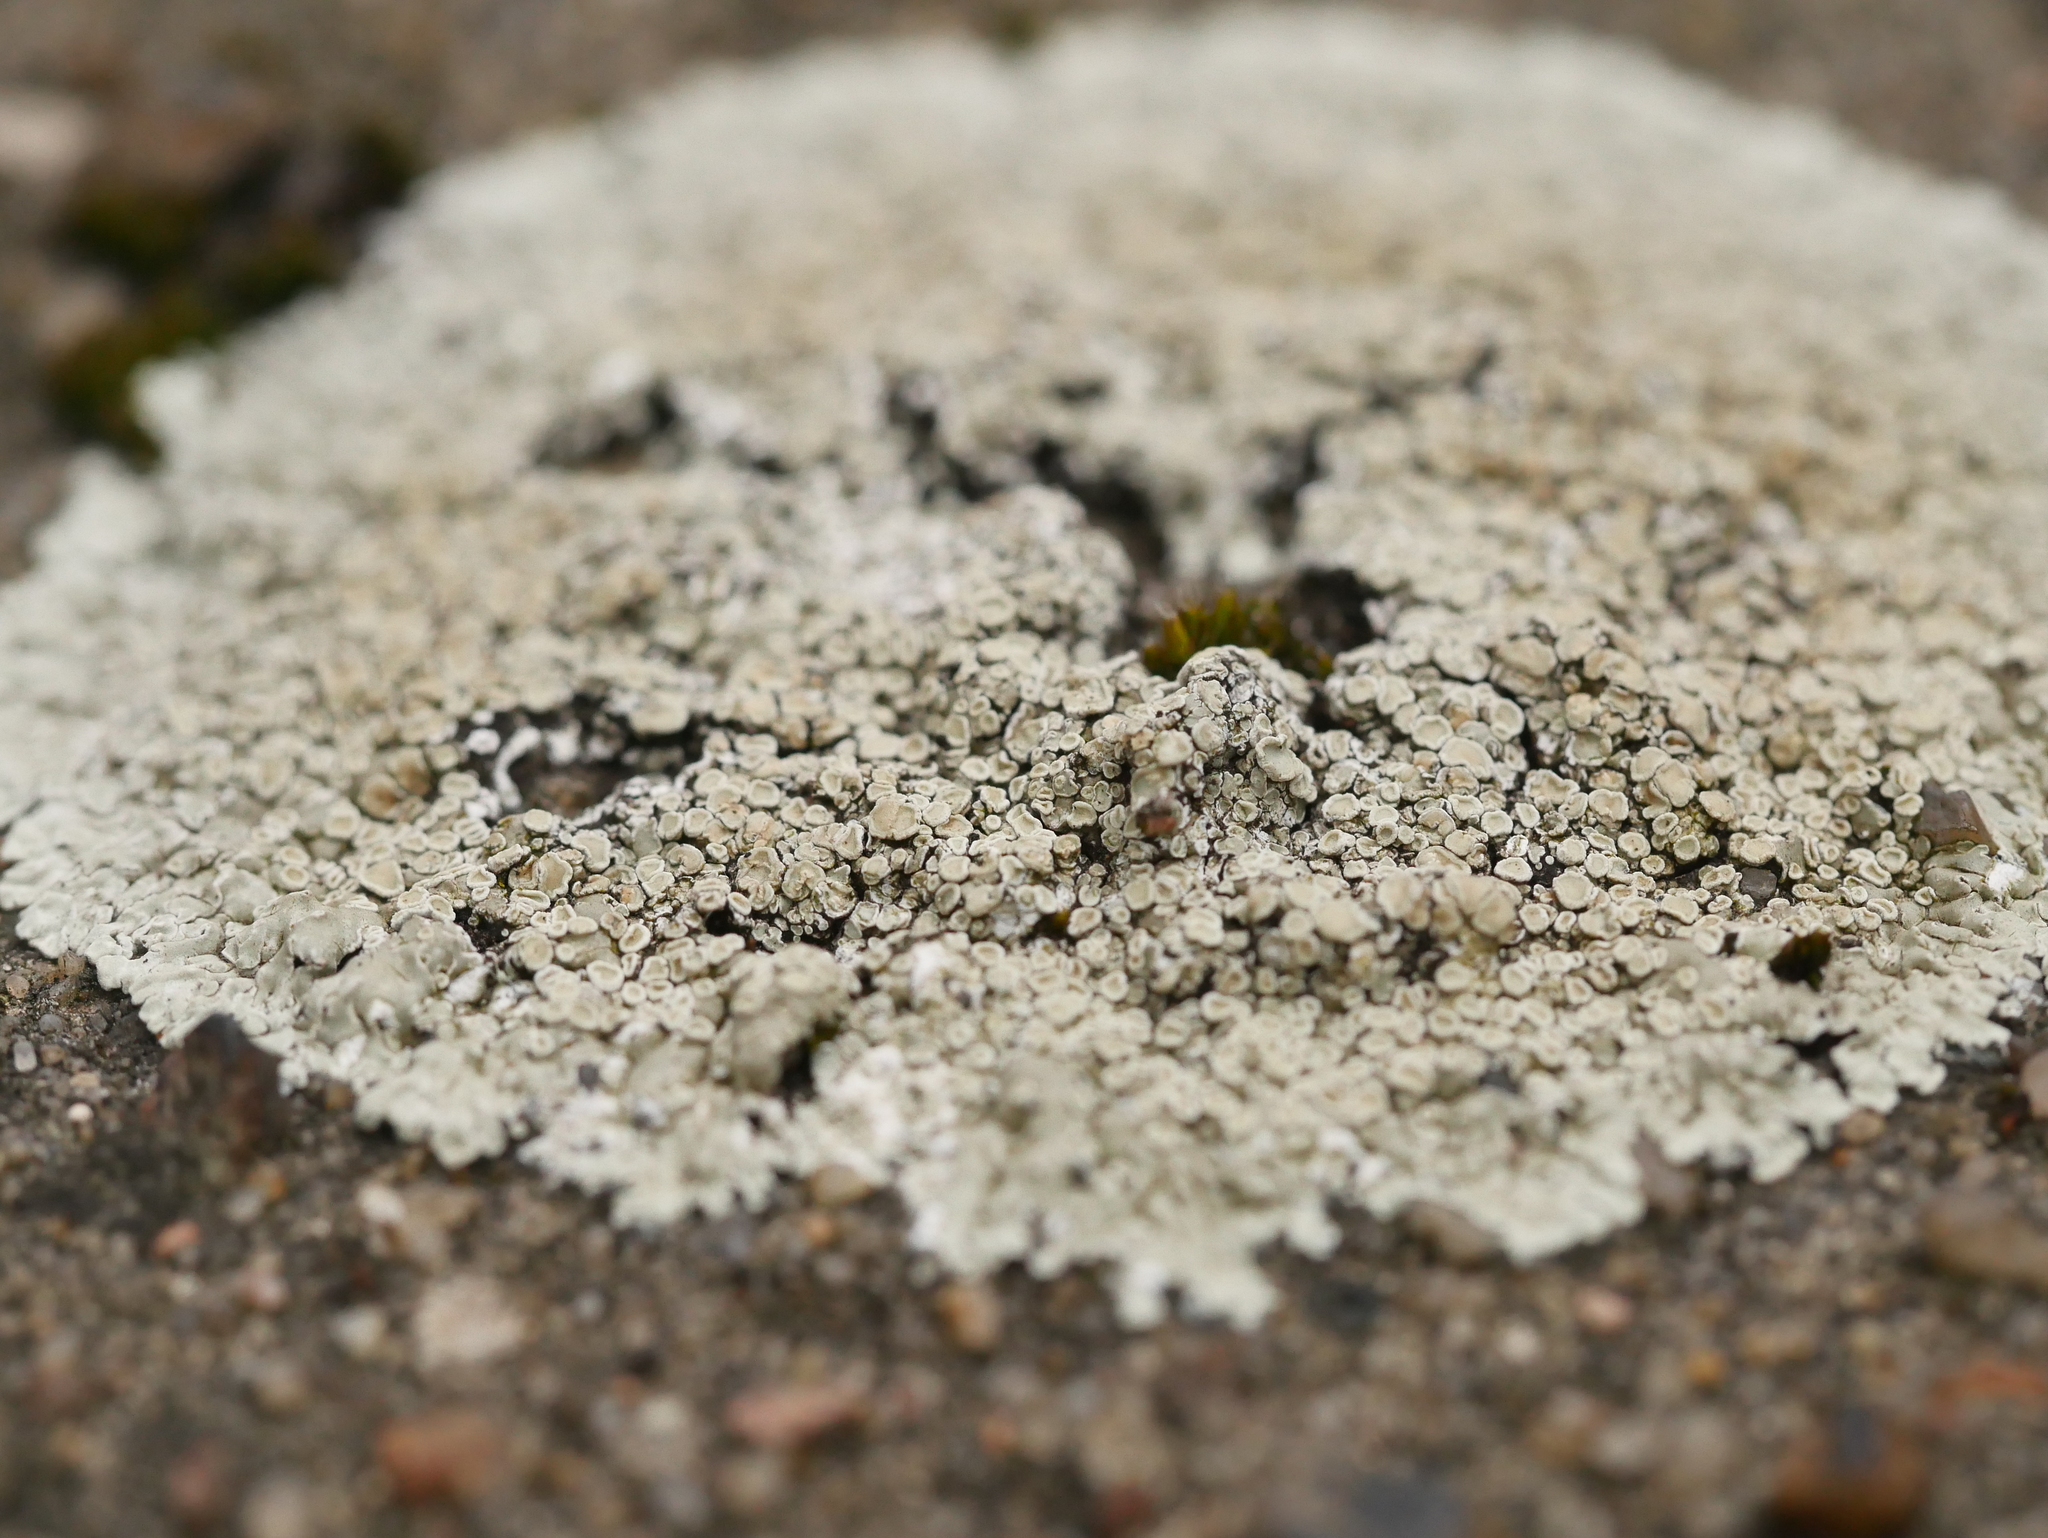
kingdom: Fungi
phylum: Ascomycota
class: Lecanoromycetes
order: Lecanorales
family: Lecanoraceae
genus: Protoparmeliopsis
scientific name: Protoparmeliopsis muralis
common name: Stonewall rim lichen
